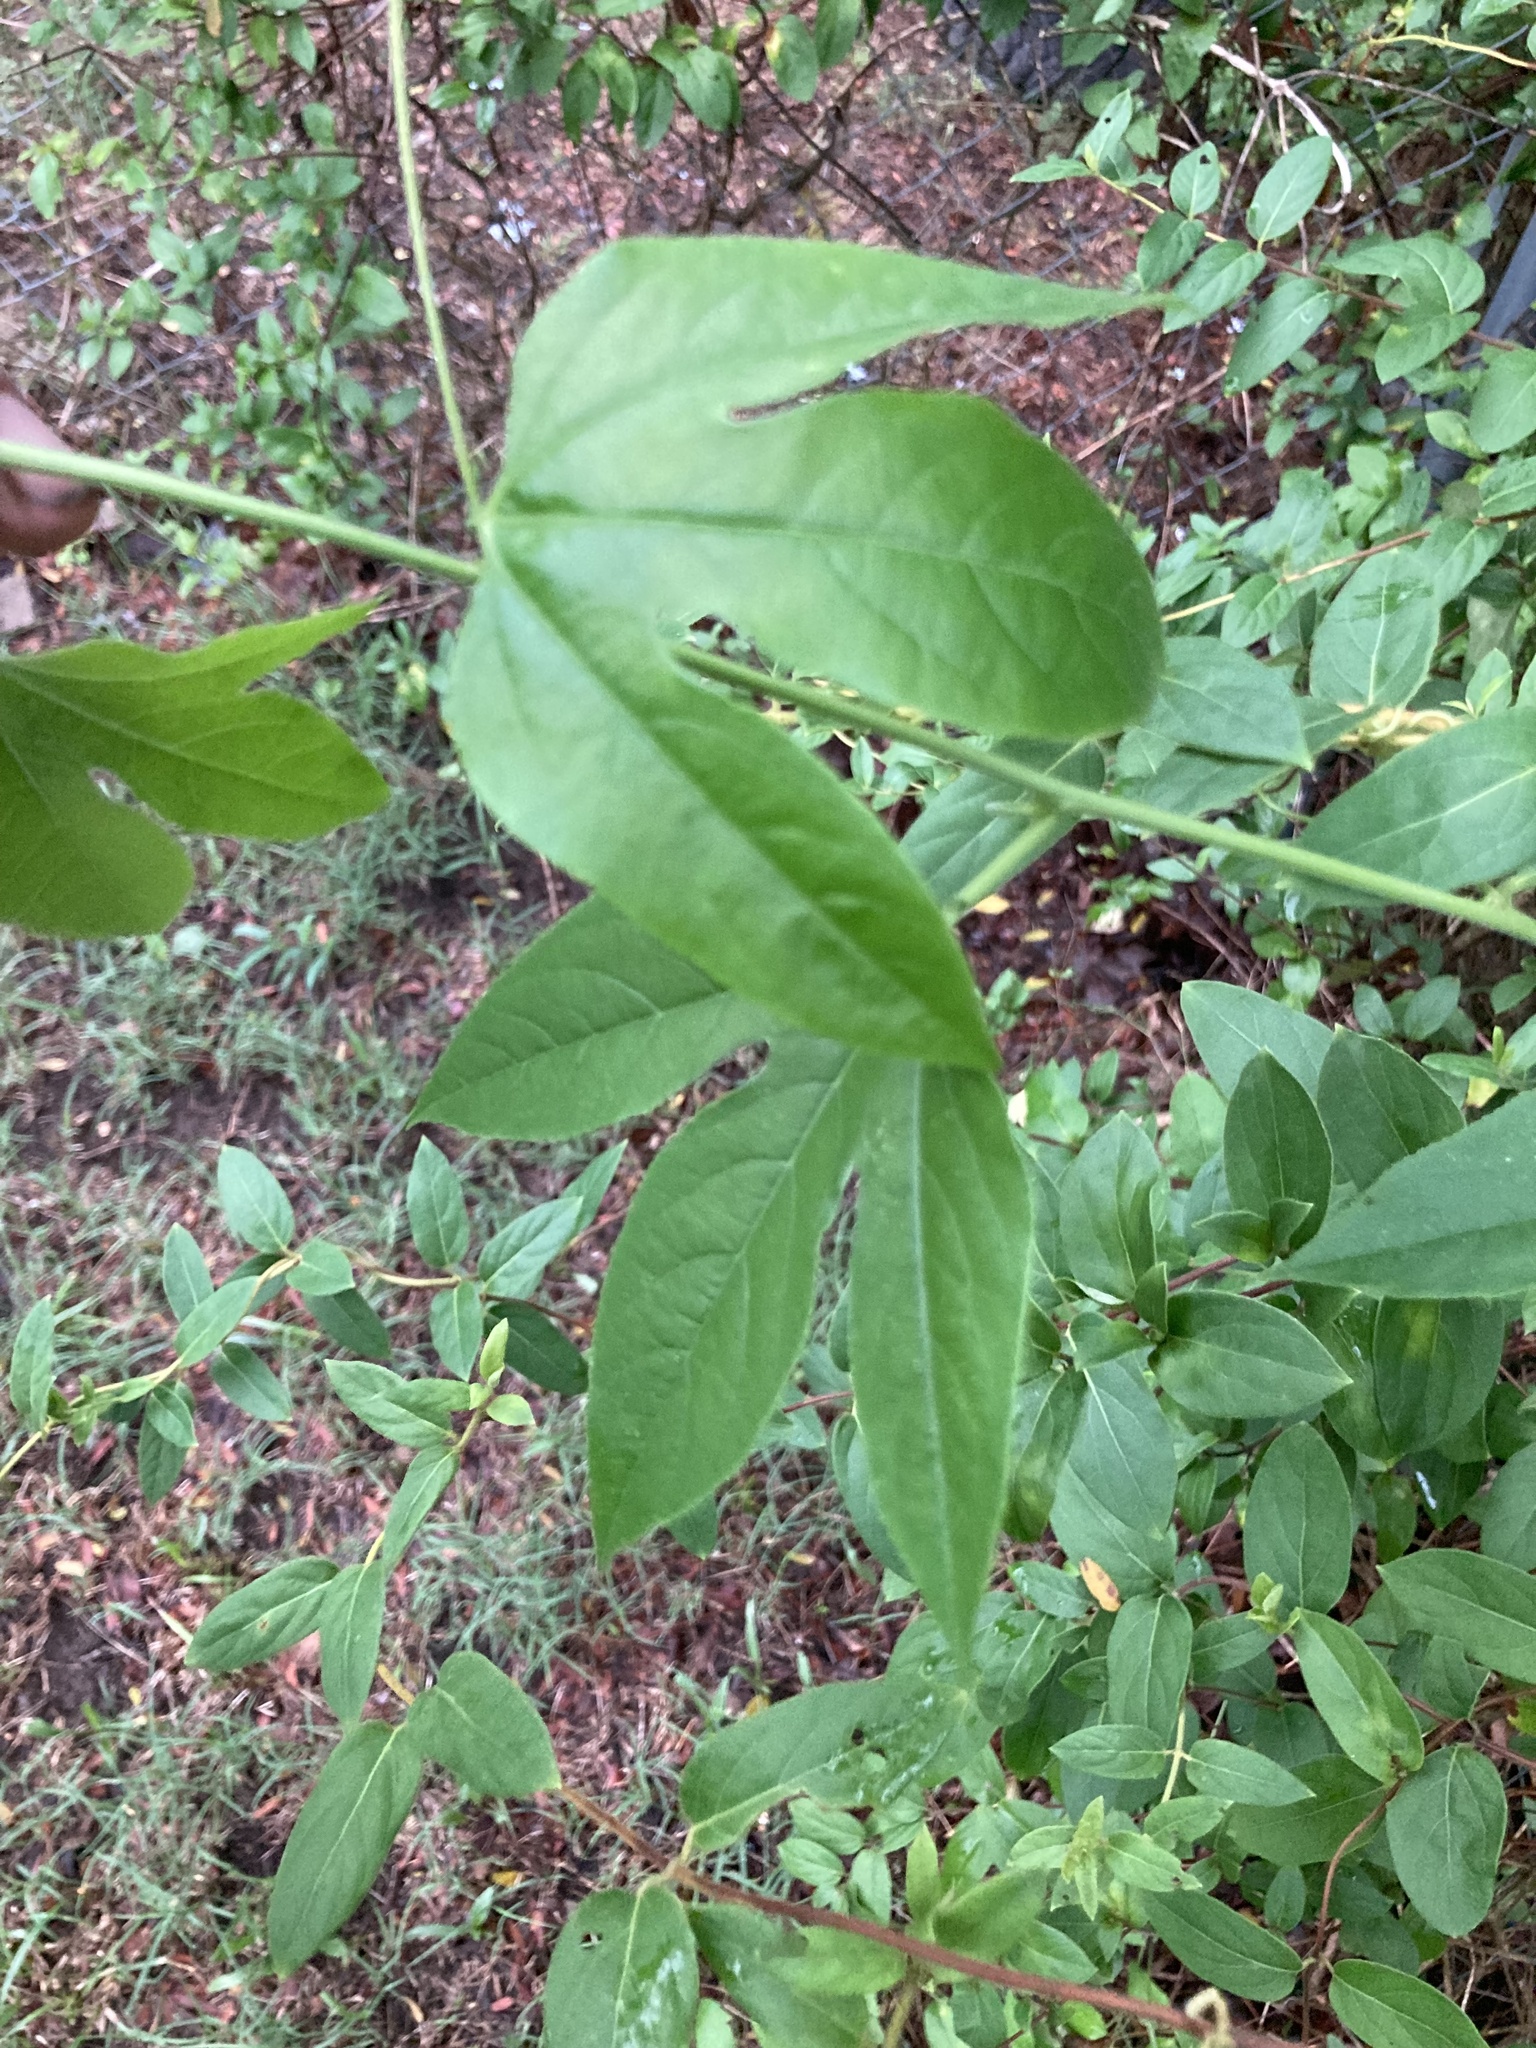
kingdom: Plantae
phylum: Tracheophyta
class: Magnoliopsida
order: Malpighiales
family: Passifloraceae
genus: Passiflora
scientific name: Passiflora incarnata
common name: Apricot-vine
